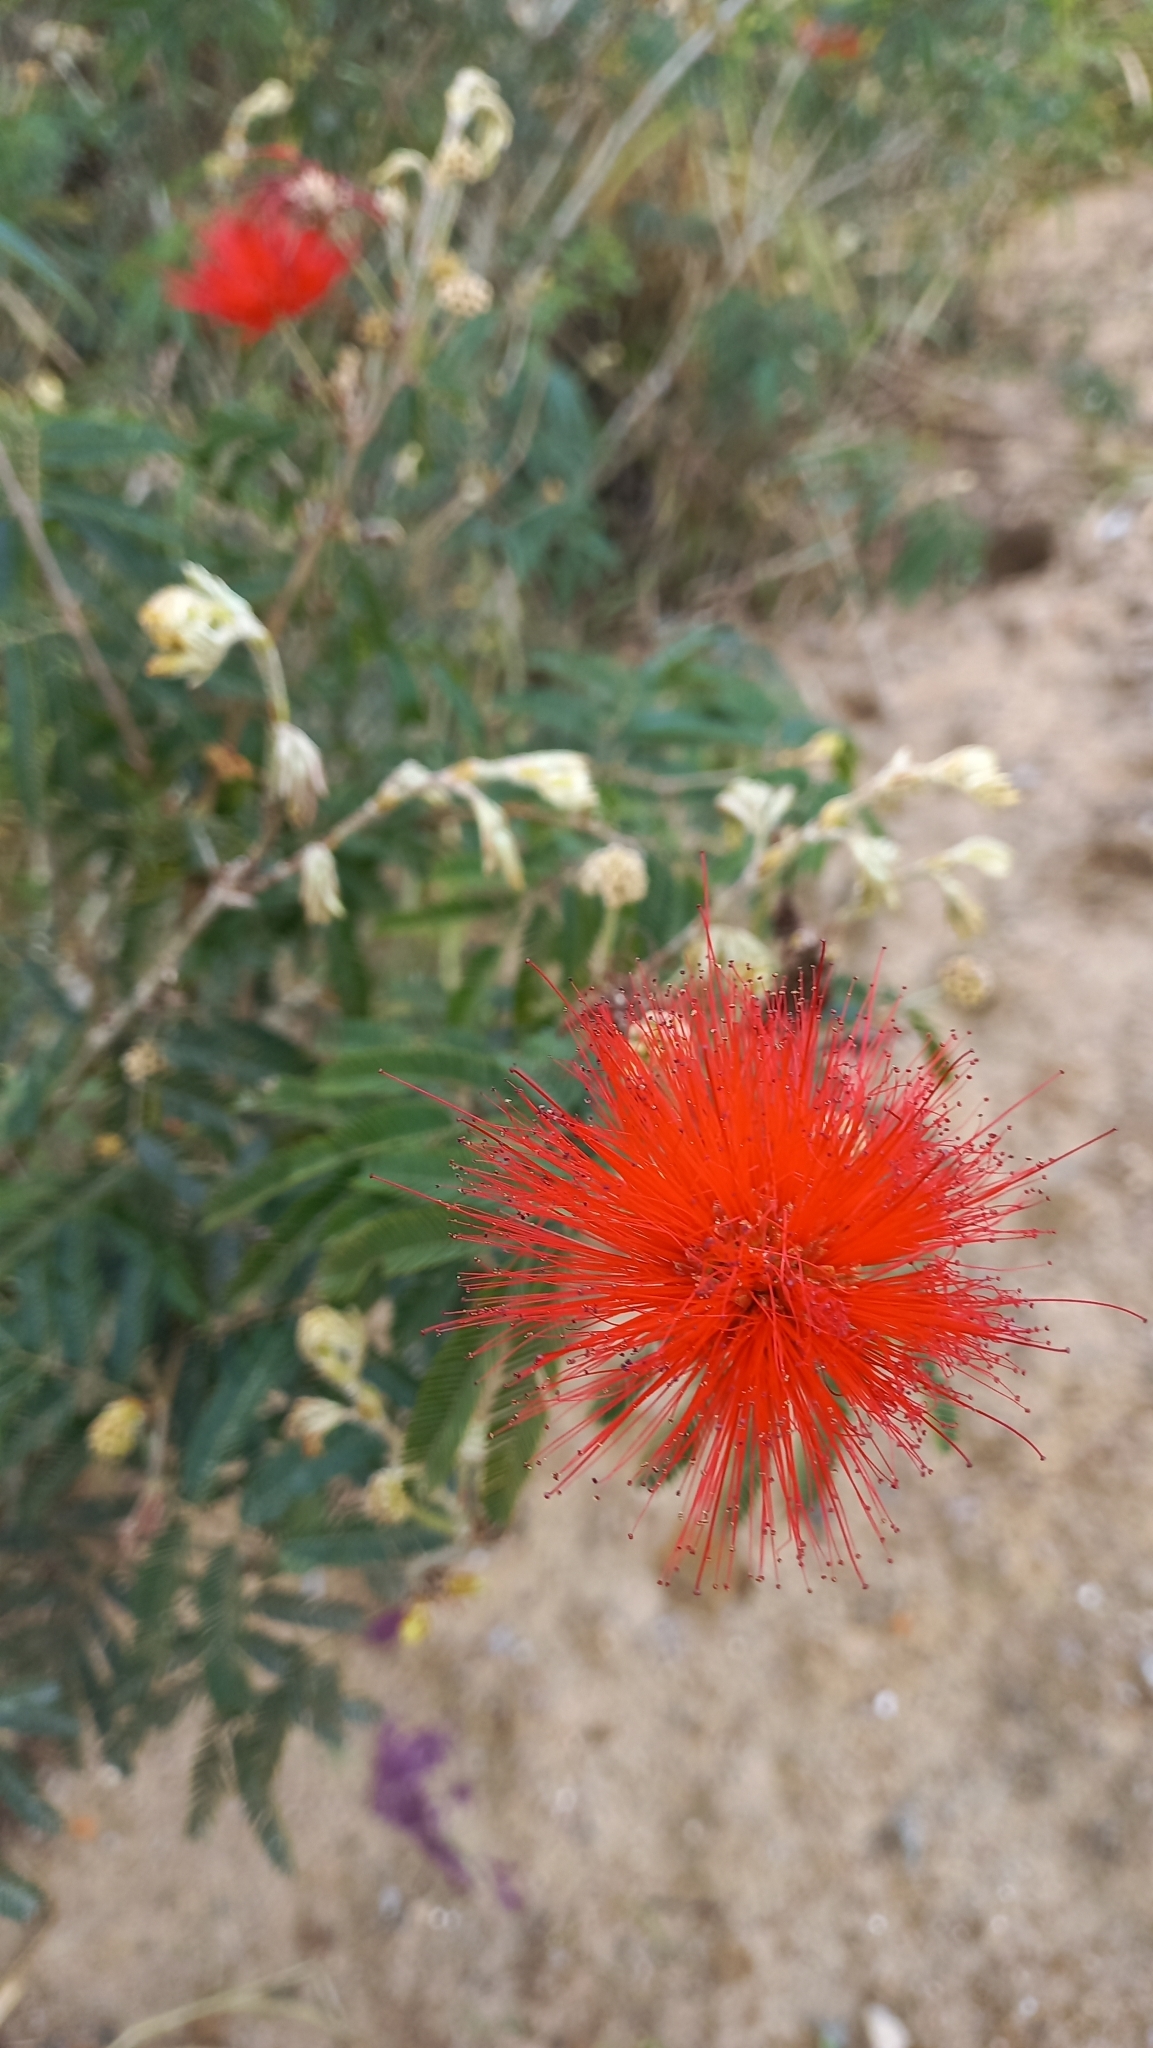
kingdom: Plantae
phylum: Tracheophyta
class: Magnoliopsida
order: Fabales
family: Fabaceae
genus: Calliandra
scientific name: Calliandra tweediei
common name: Mexican flamebush
